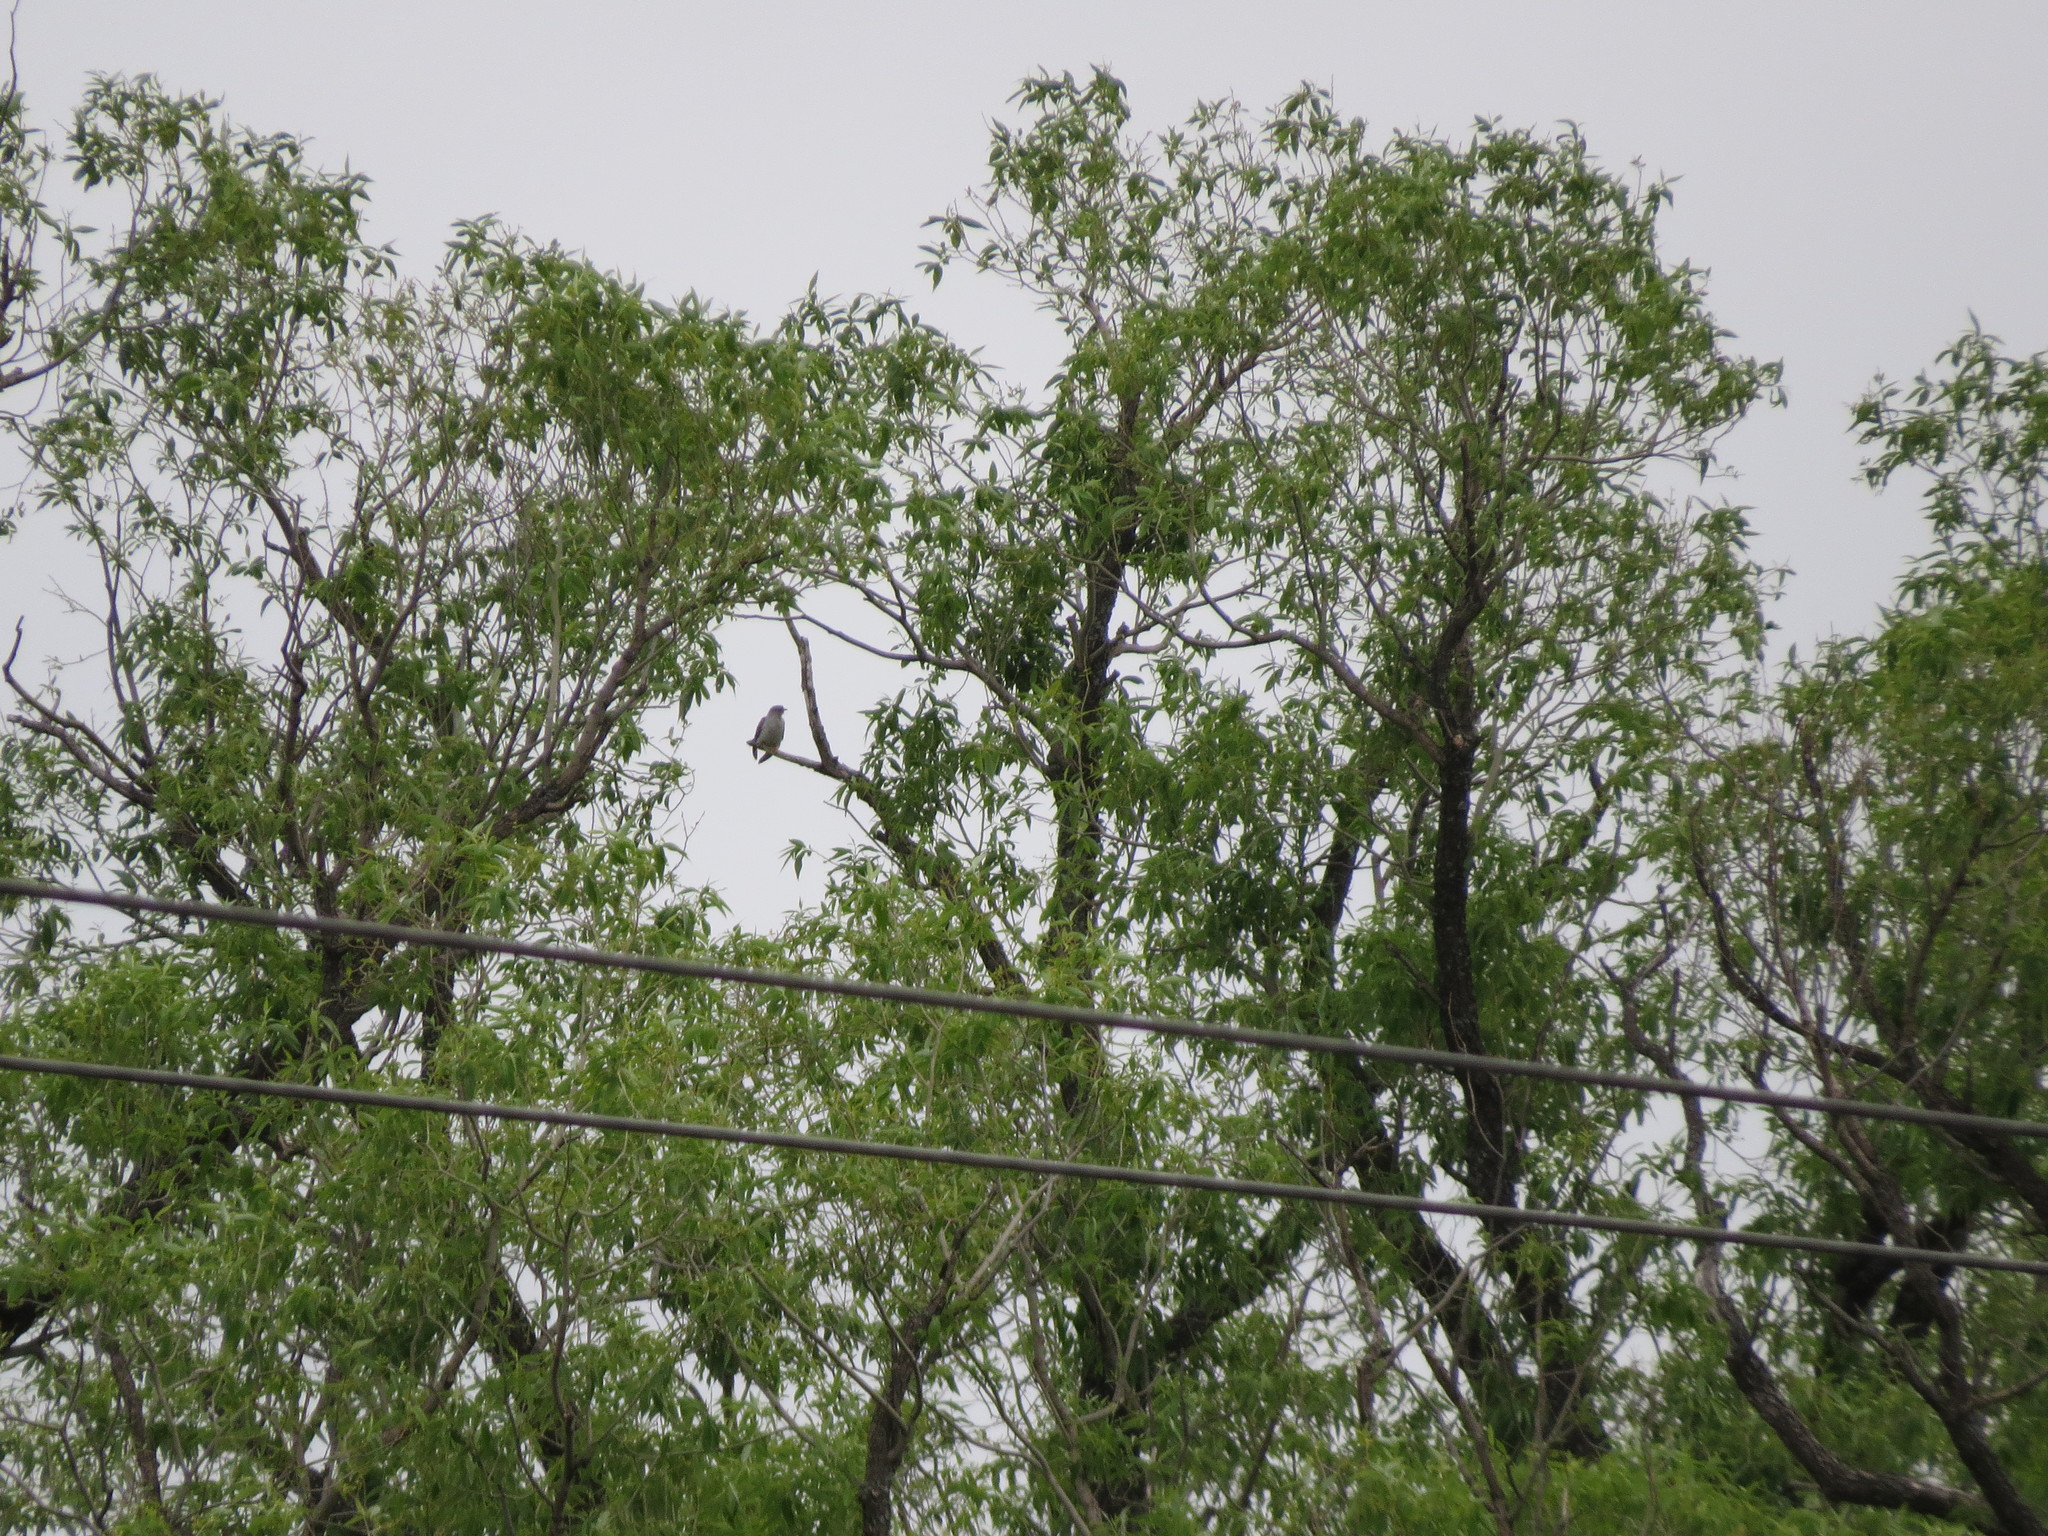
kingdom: Animalia
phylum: Chordata
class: Aves
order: Cuculiformes
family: Cuculidae
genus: Cuculus
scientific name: Cuculus canorus
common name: Common cuckoo
